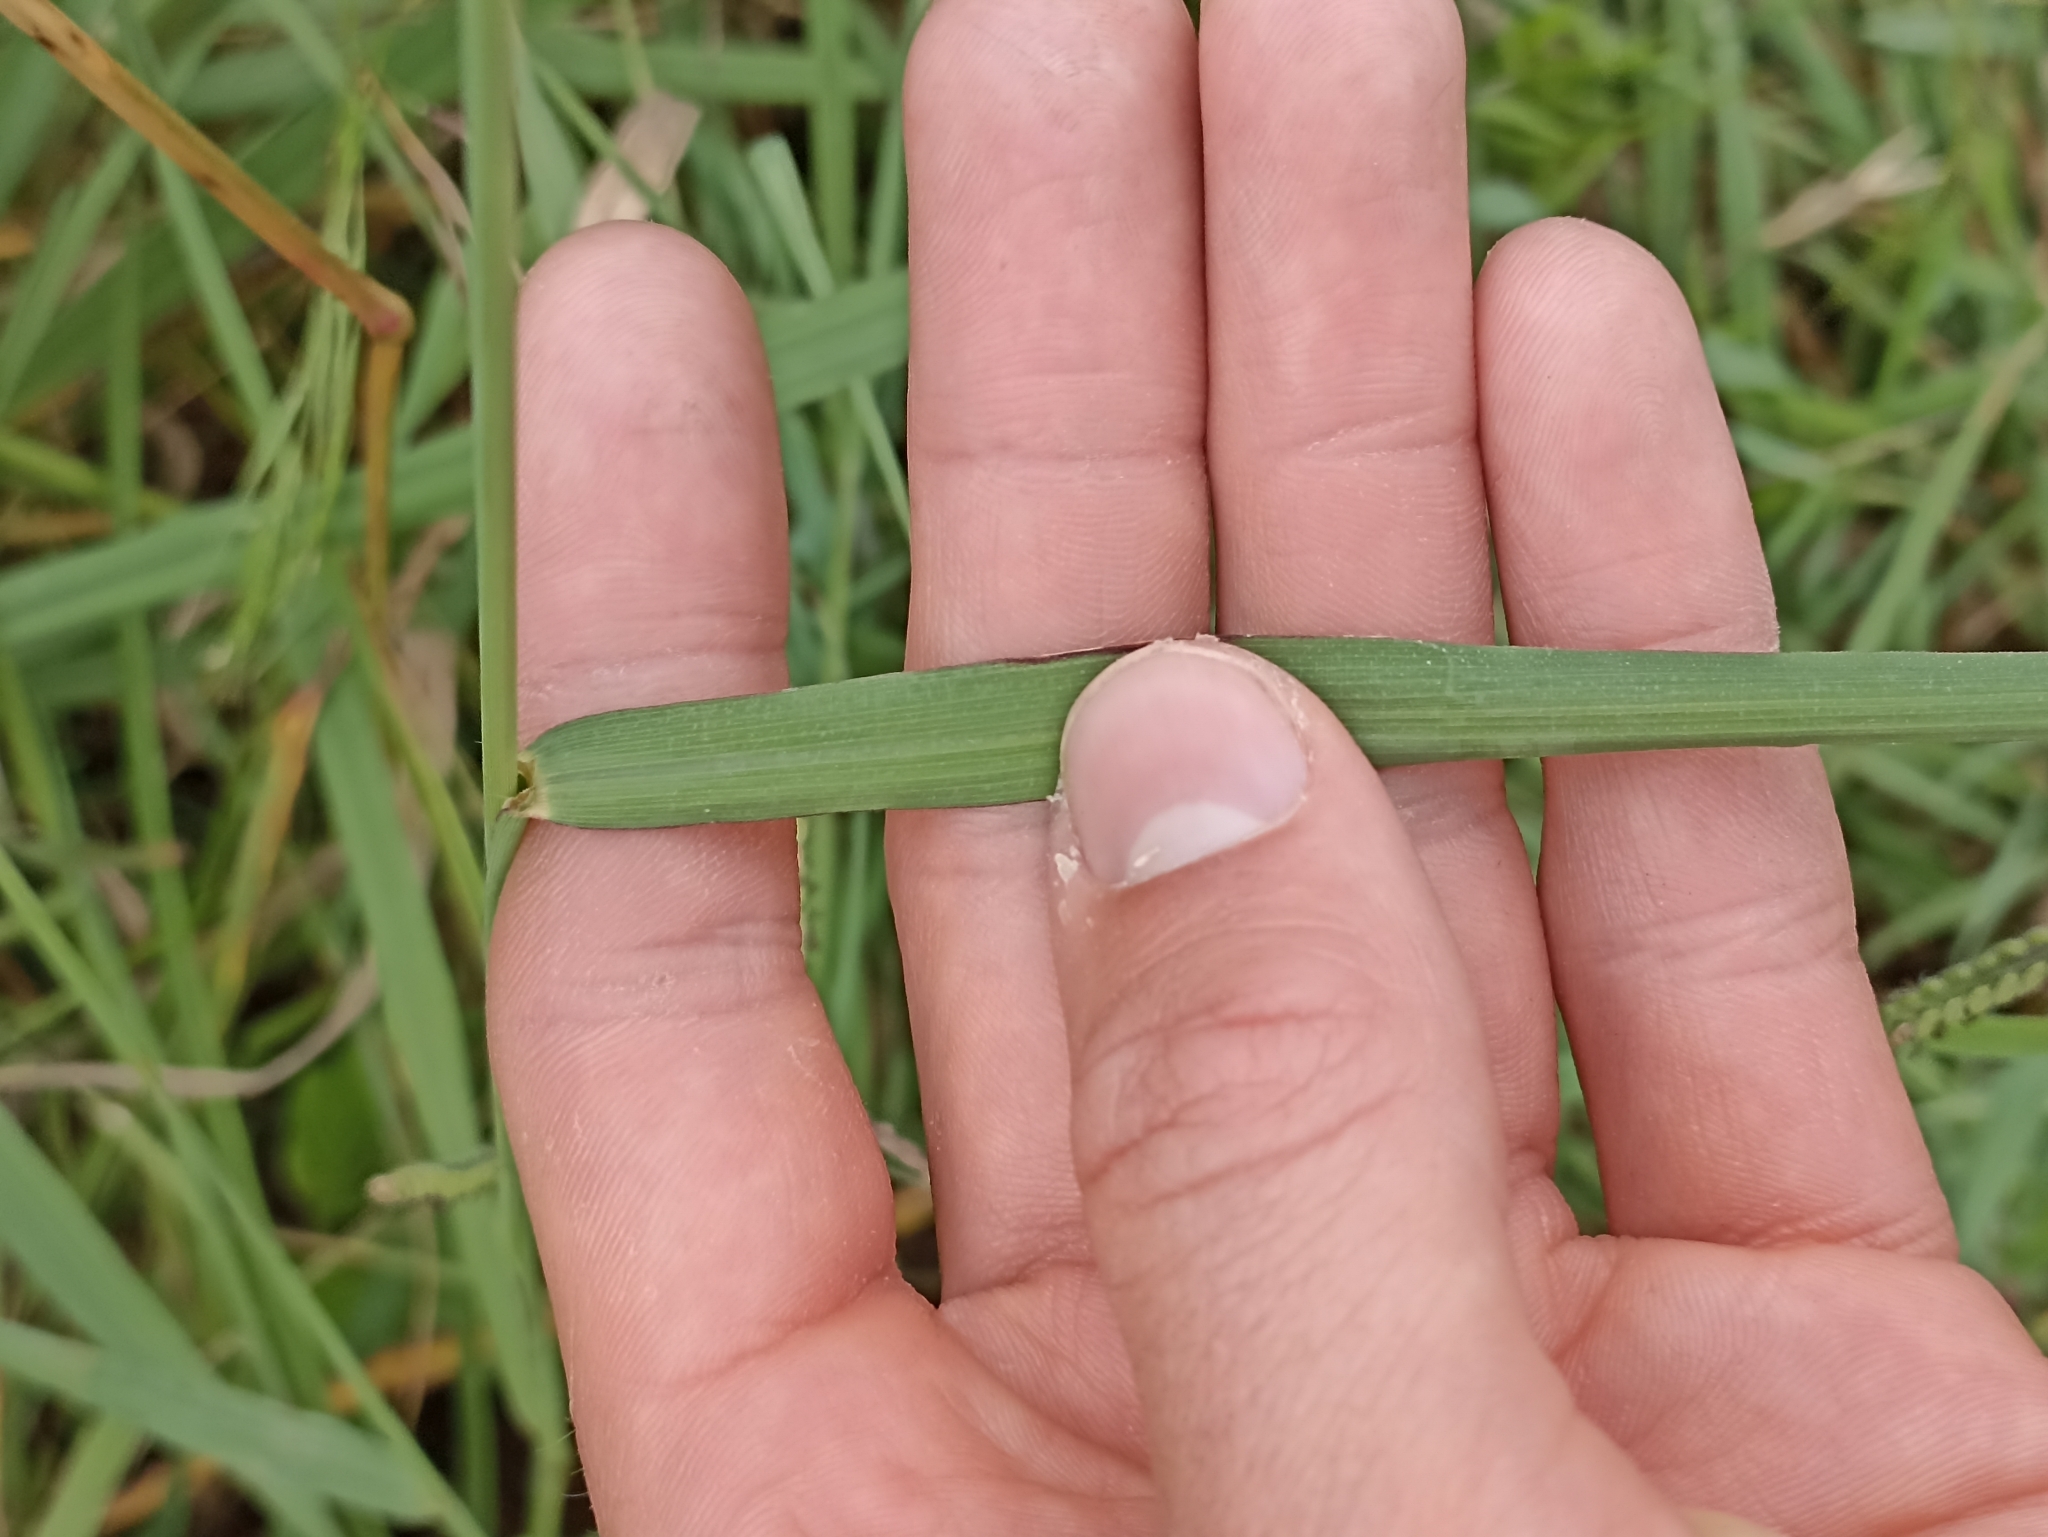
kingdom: Plantae
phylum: Tracheophyta
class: Liliopsida
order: Poales
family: Poaceae
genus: Paspalum
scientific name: Paspalum dilatatum
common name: Dallisgrass
